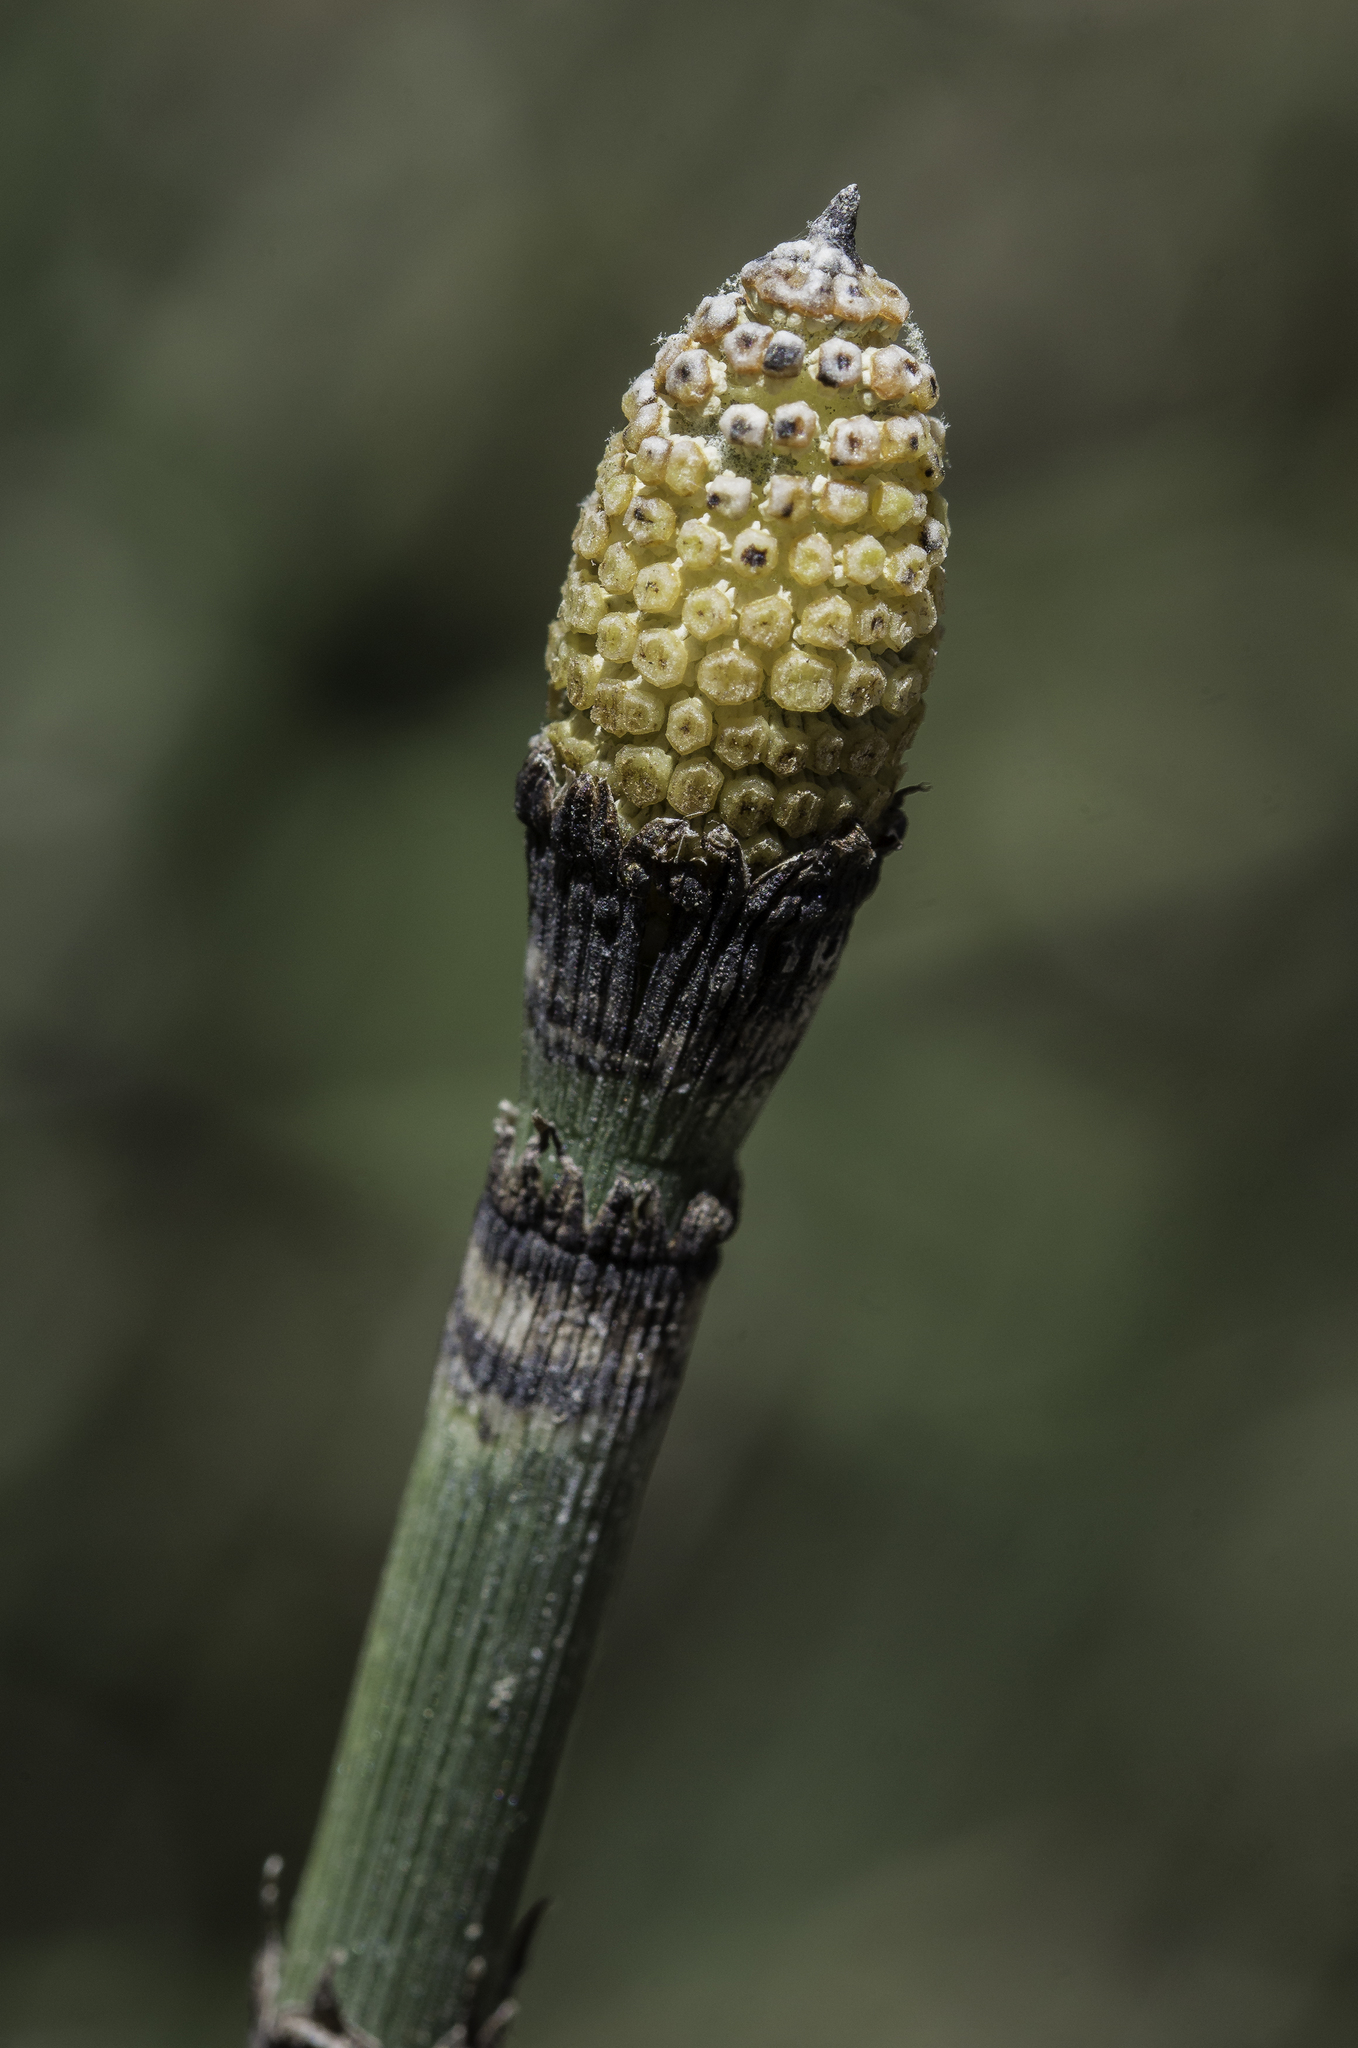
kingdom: Plantae
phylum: Tracheophyta
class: Polypodiopsida
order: Equisetales
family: Equisetaceae
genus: Equisetum
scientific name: Equisetum hyemale
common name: Rough horsetail
